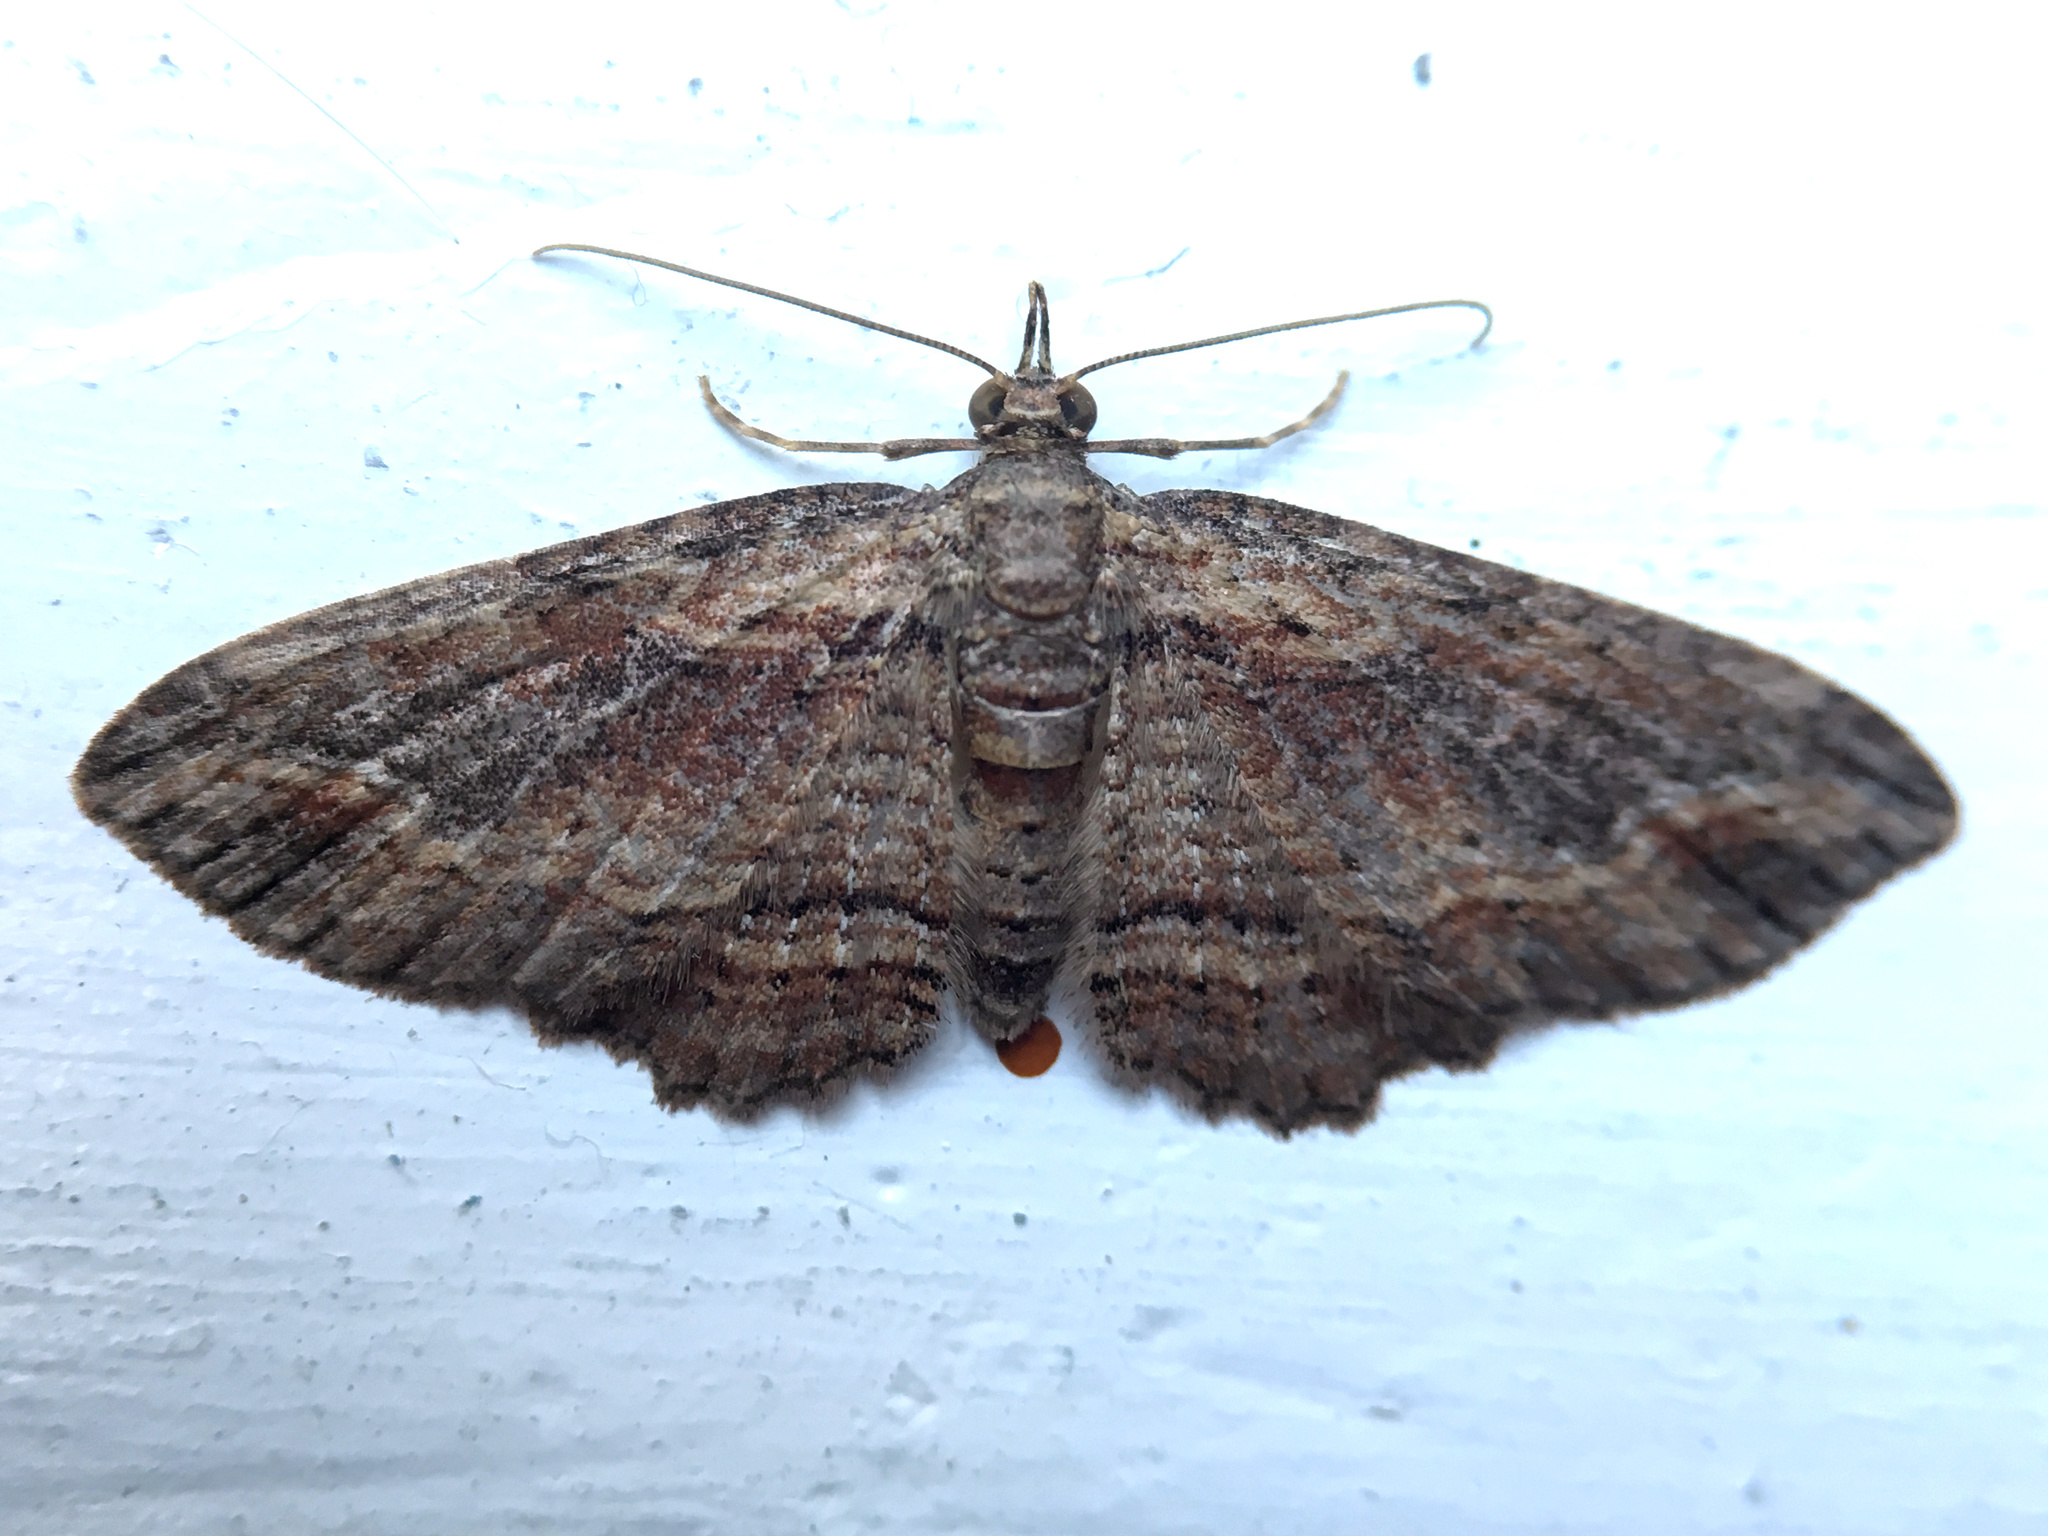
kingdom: Animalia
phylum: Arthropoda
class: Insecta
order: Lepidoptera
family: Geometridae
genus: Chloroclystis
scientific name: Chloroclystis filata
